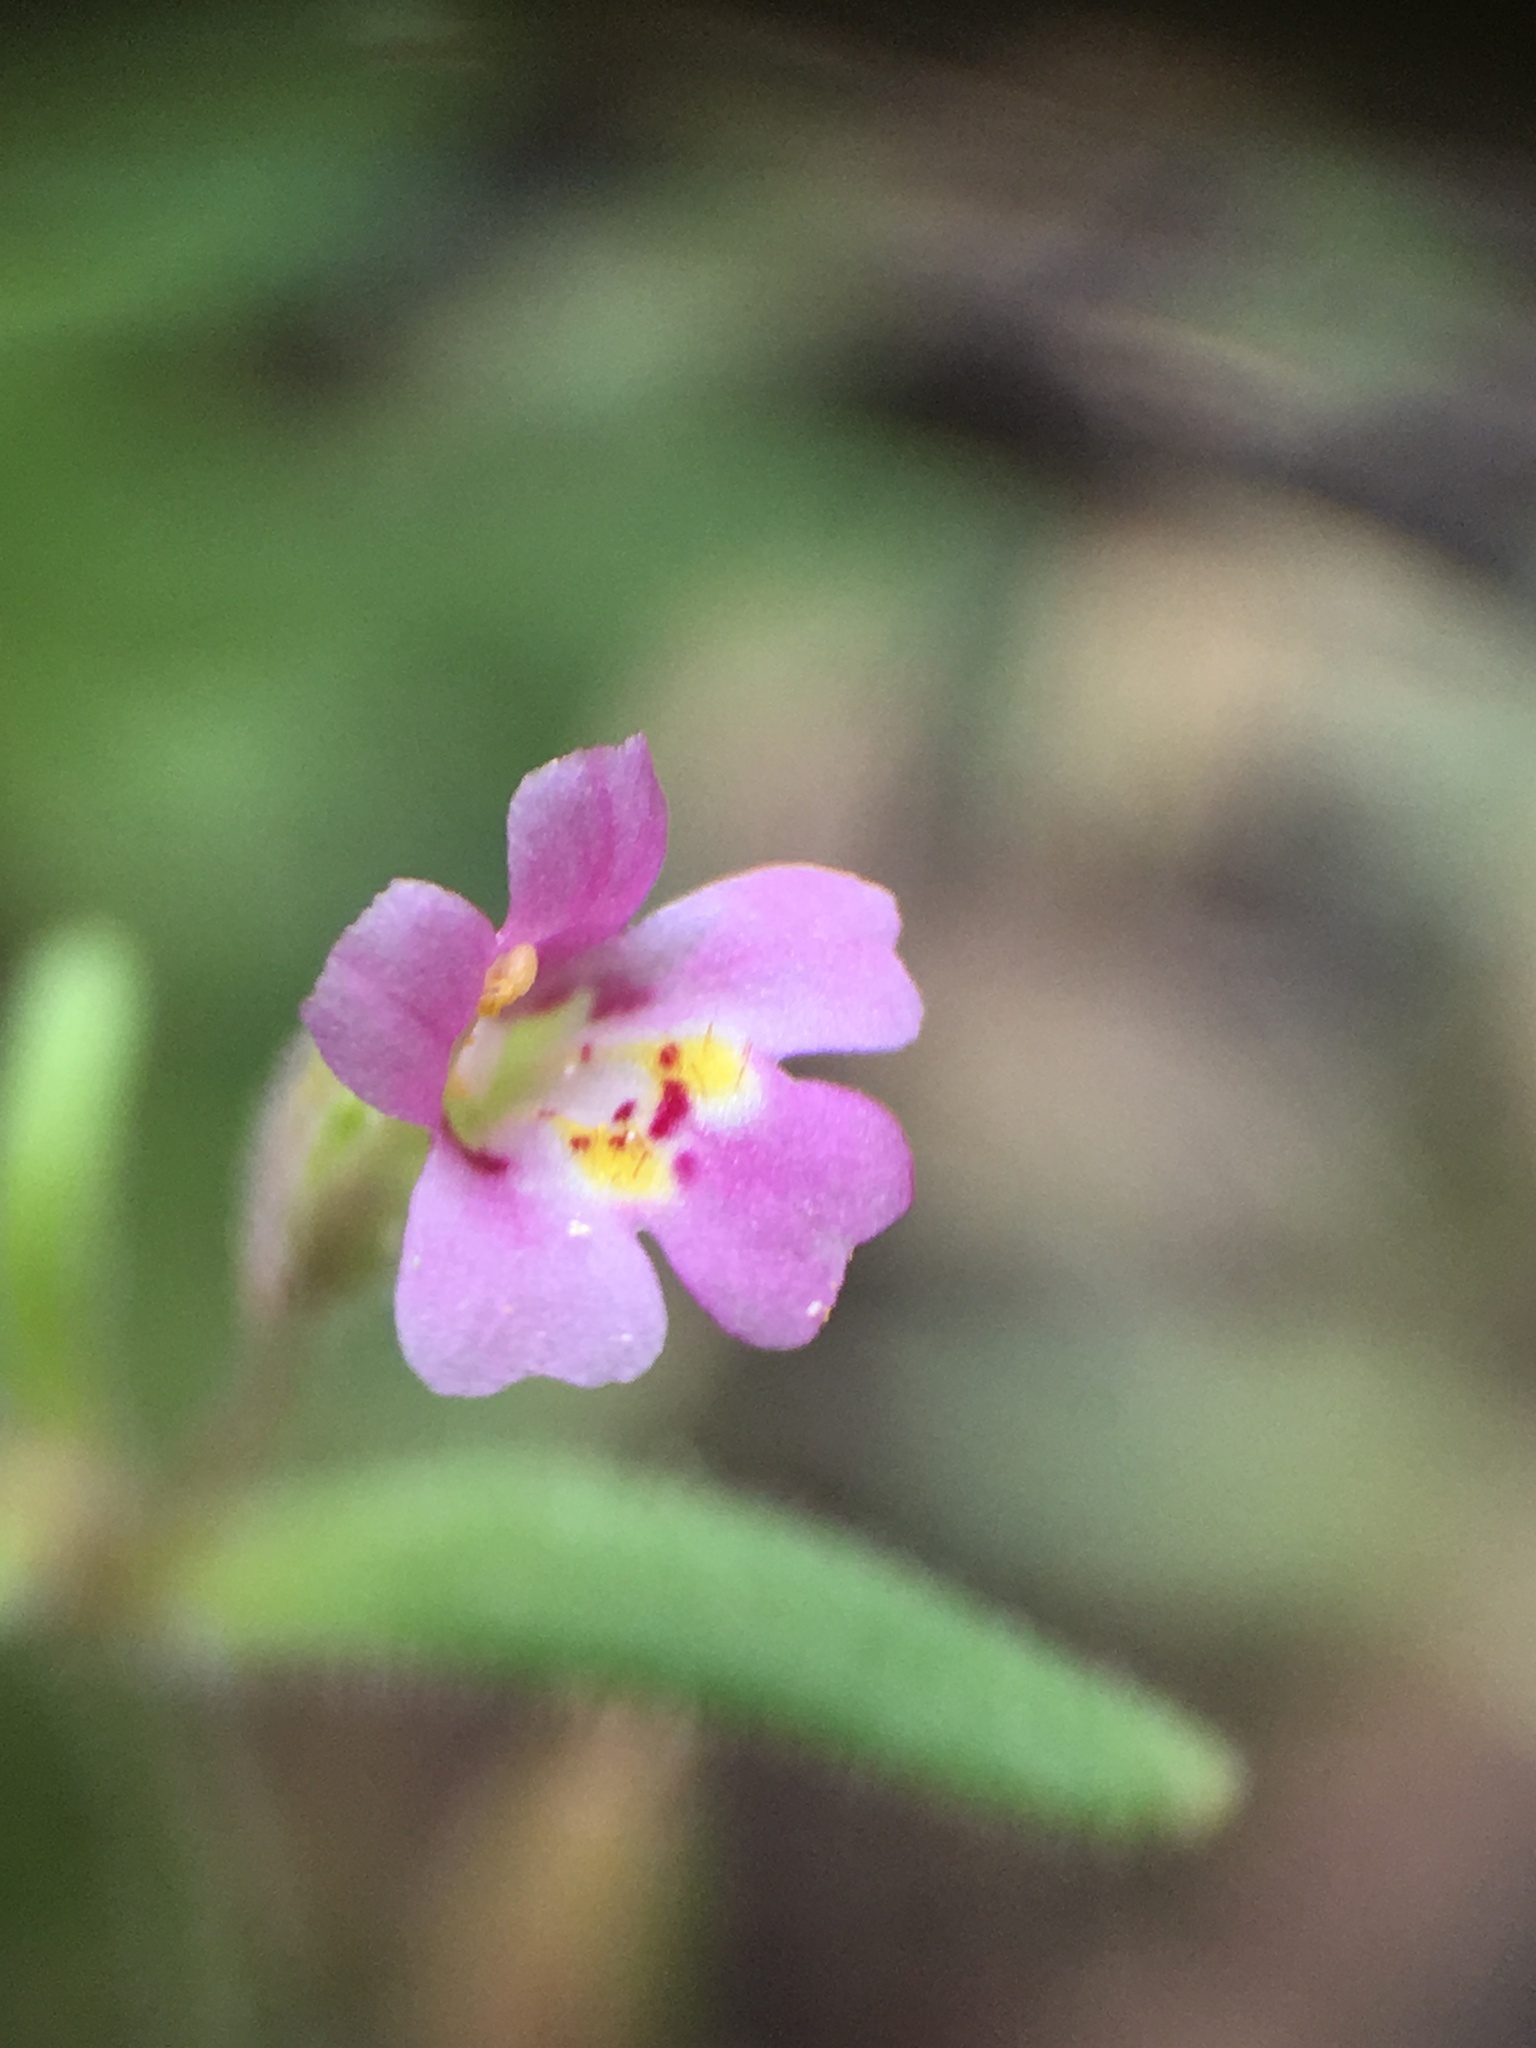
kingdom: Plantae
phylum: Tracheophyta
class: Magnoliopsida
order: Lamiales
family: Phrymaceae
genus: Erythranthe
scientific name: Erythranthe breweri
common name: Brewer's monkeyflower
